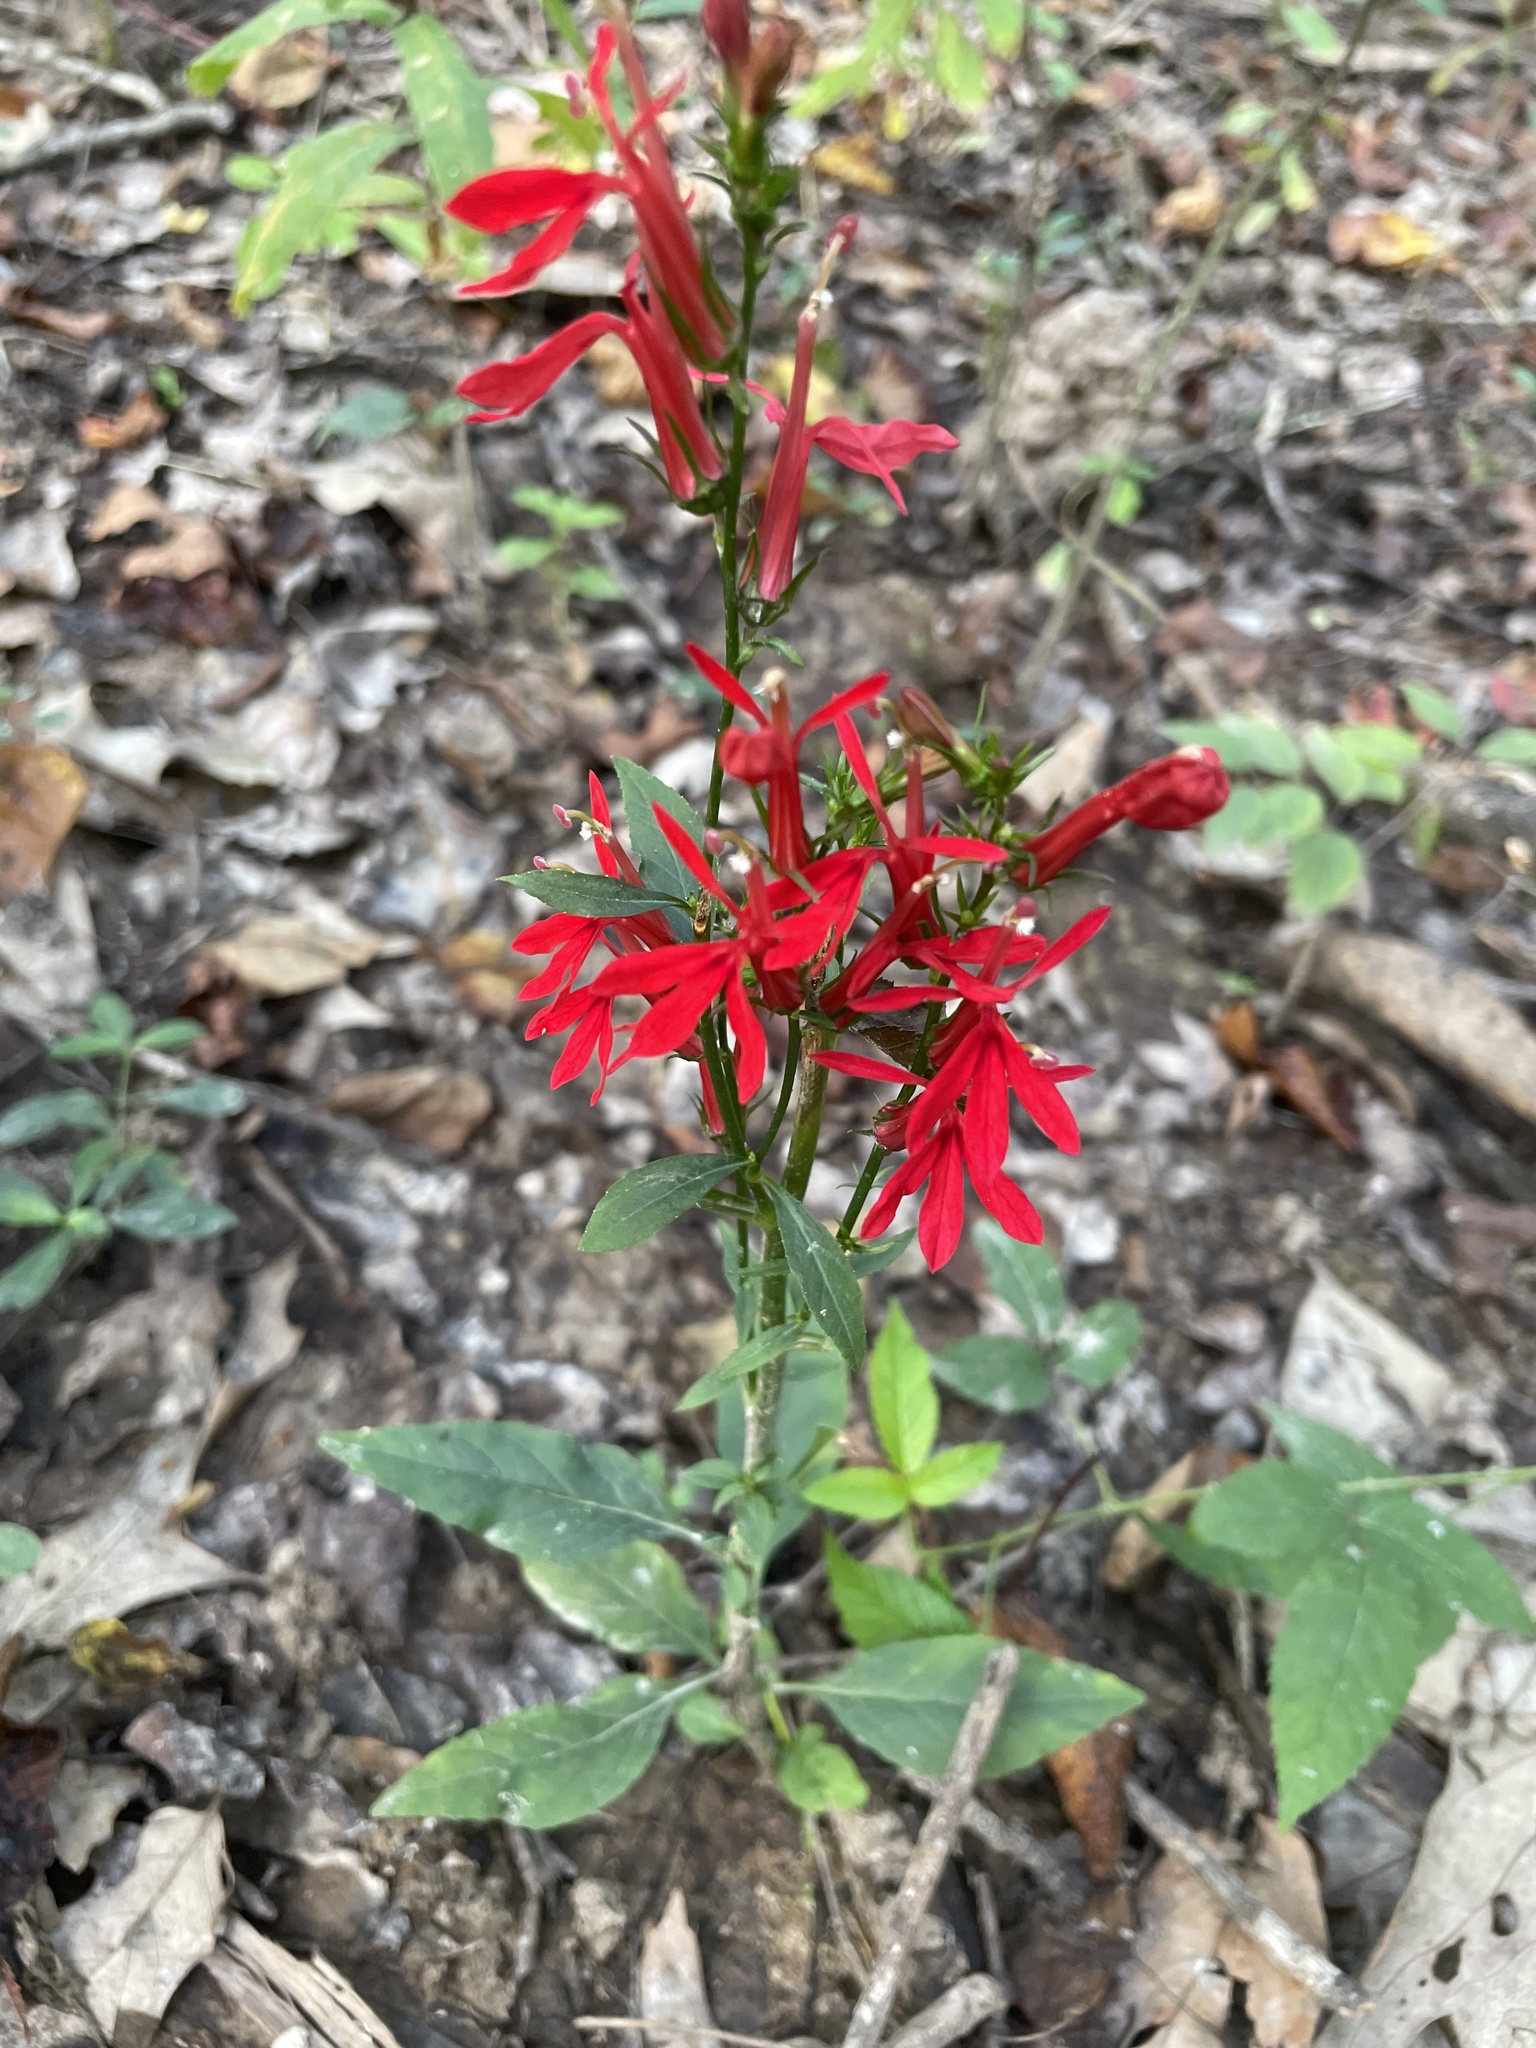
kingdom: Plantae
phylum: Tracheophyta
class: Magnoliopsida
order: Asterales
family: Campanulaceae
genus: Lobelia
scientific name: Lobelia cardinalis
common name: Cardinal flower
